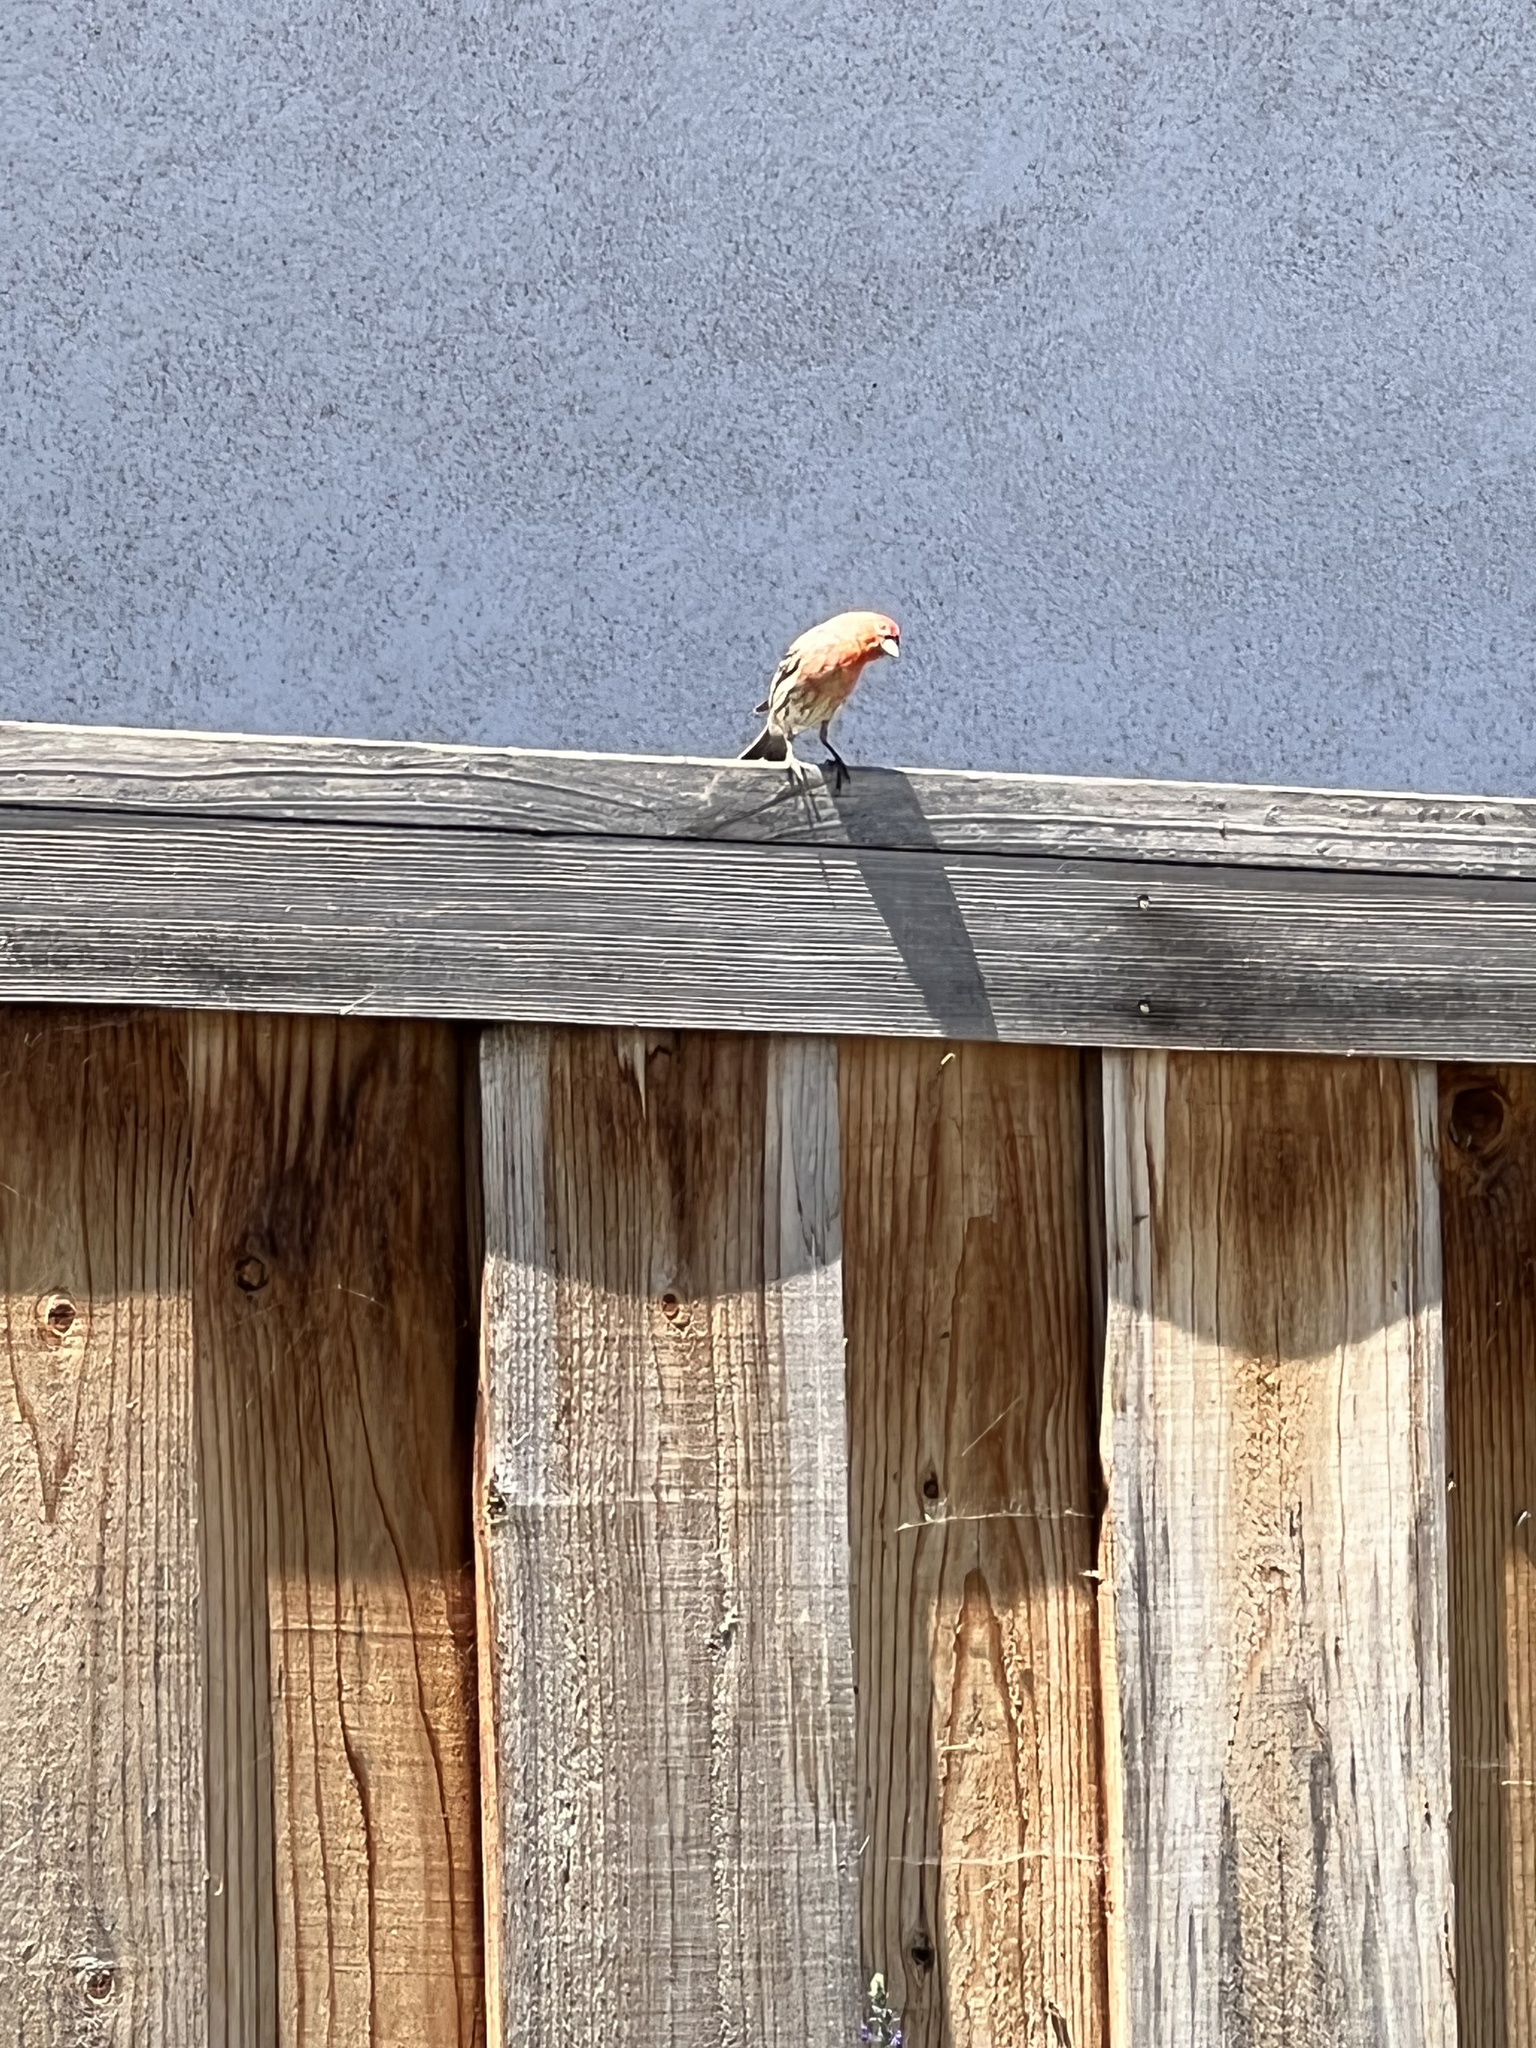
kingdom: Animalia
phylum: Chordata
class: Aves
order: Passeriformes
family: Fringillidae
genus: Haemorhous
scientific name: Haemorhous mexicanus
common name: House finch
